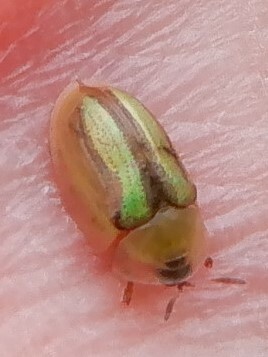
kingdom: Animalia
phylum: Arthropoda
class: Insecta
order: Coleoptera
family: Chrysomelidae
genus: Cassida
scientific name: Cassida vittata
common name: Bordered tortoise beetle
